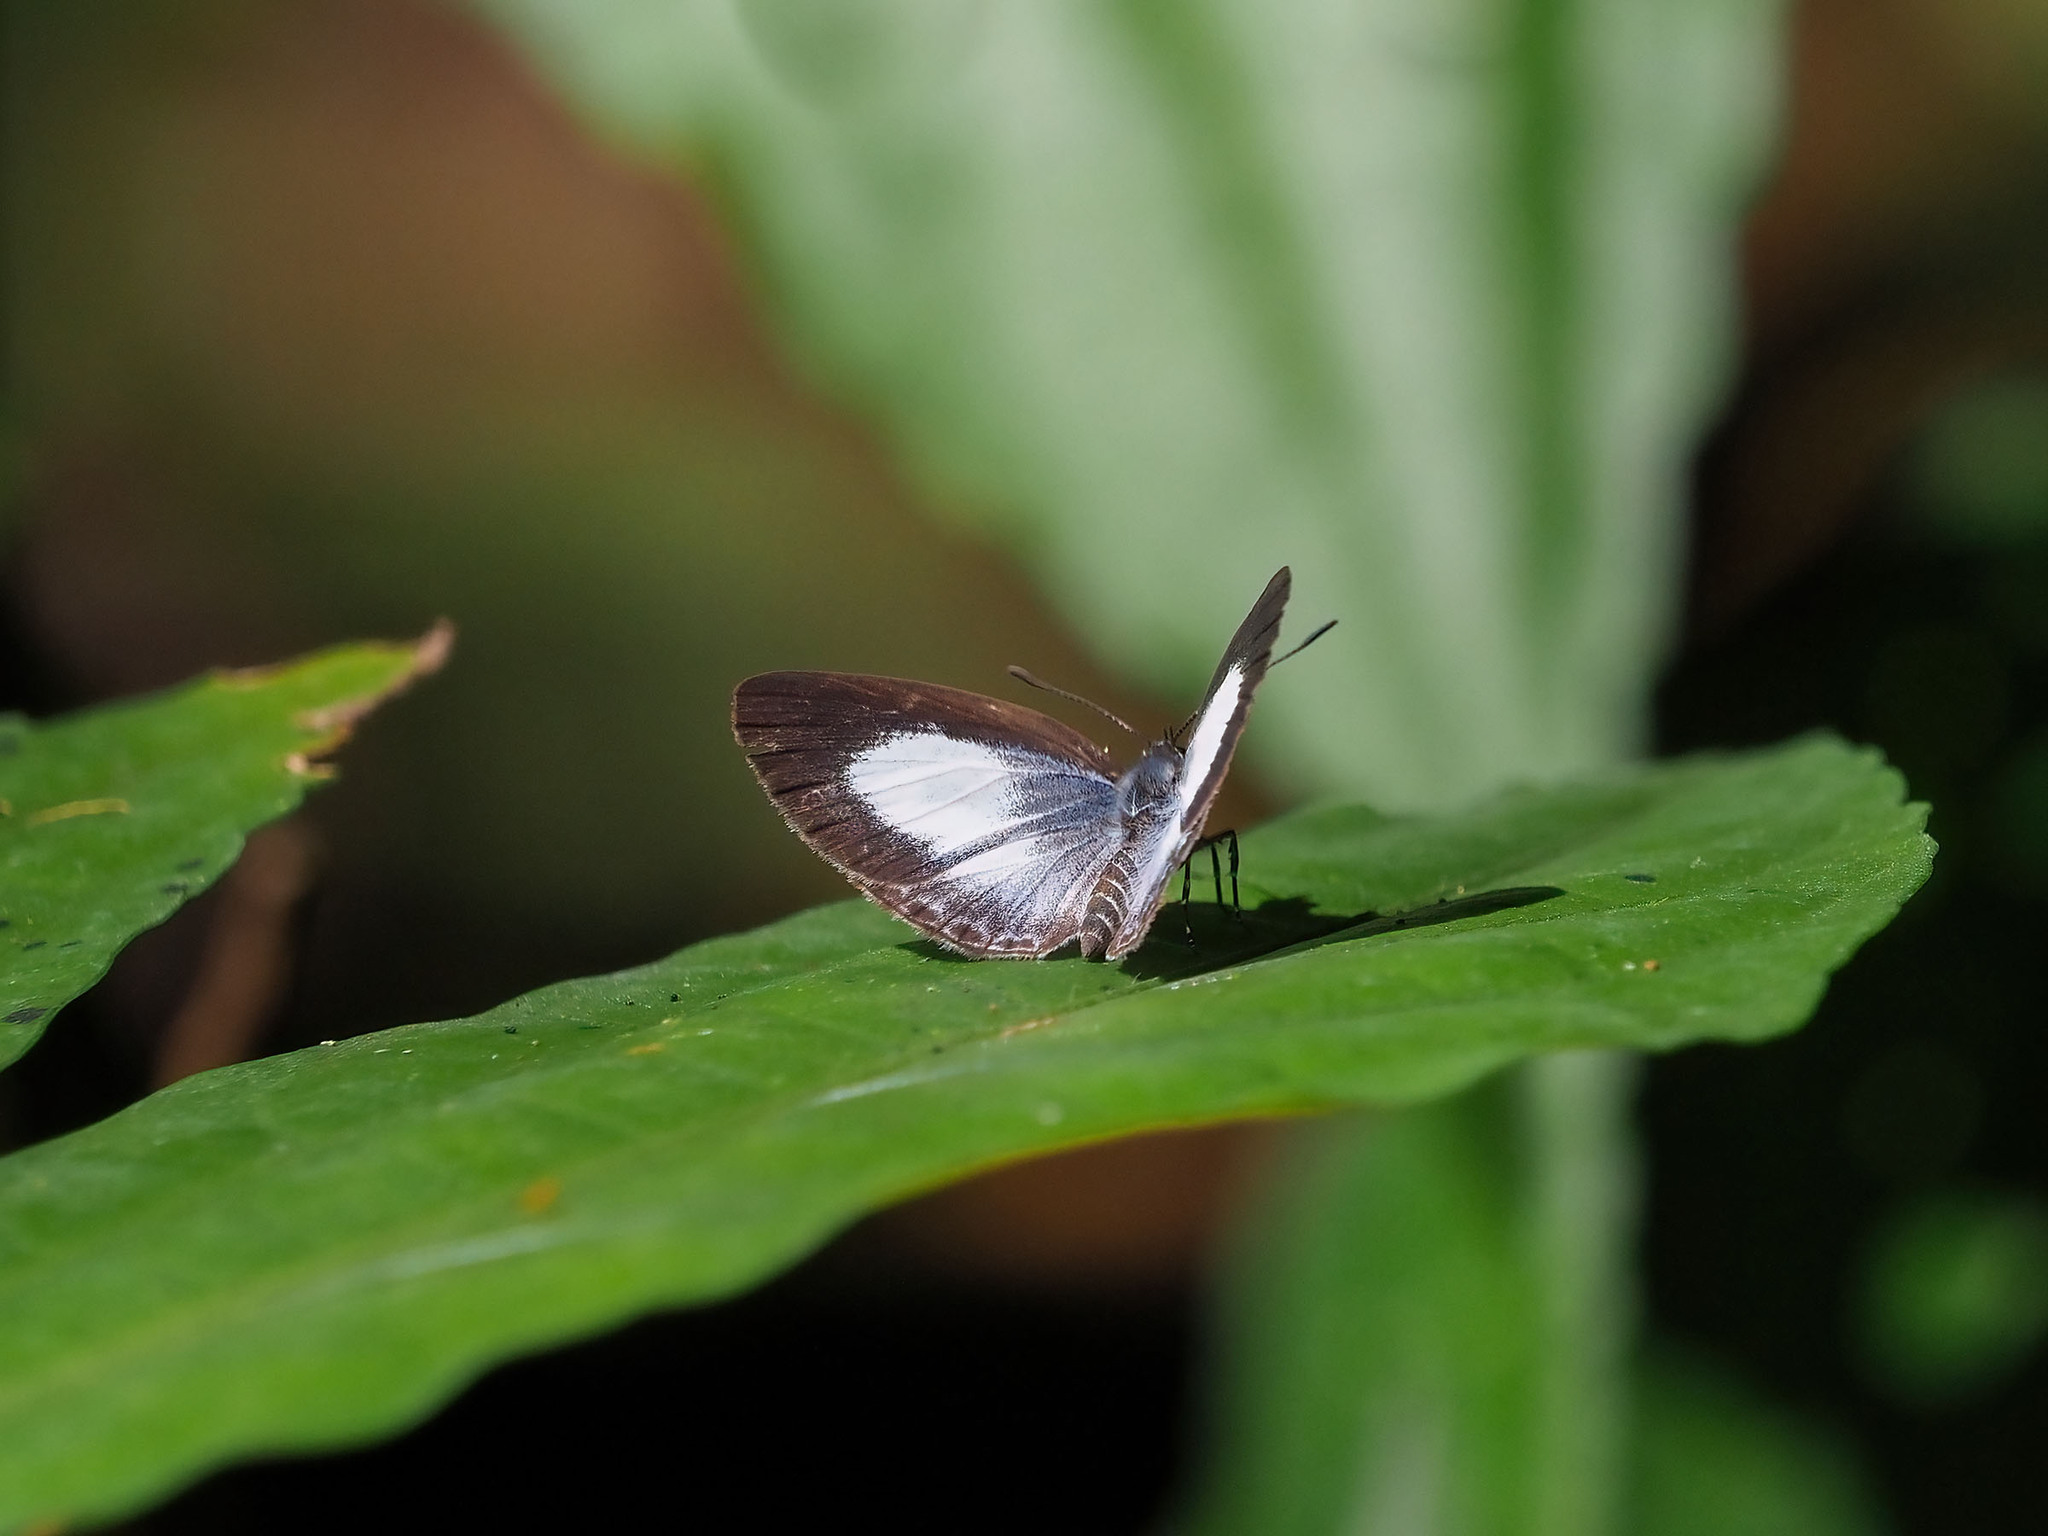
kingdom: Animalia
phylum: Arthropoda
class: Insecta
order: Lepidoptera
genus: Plautella
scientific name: Plautella
